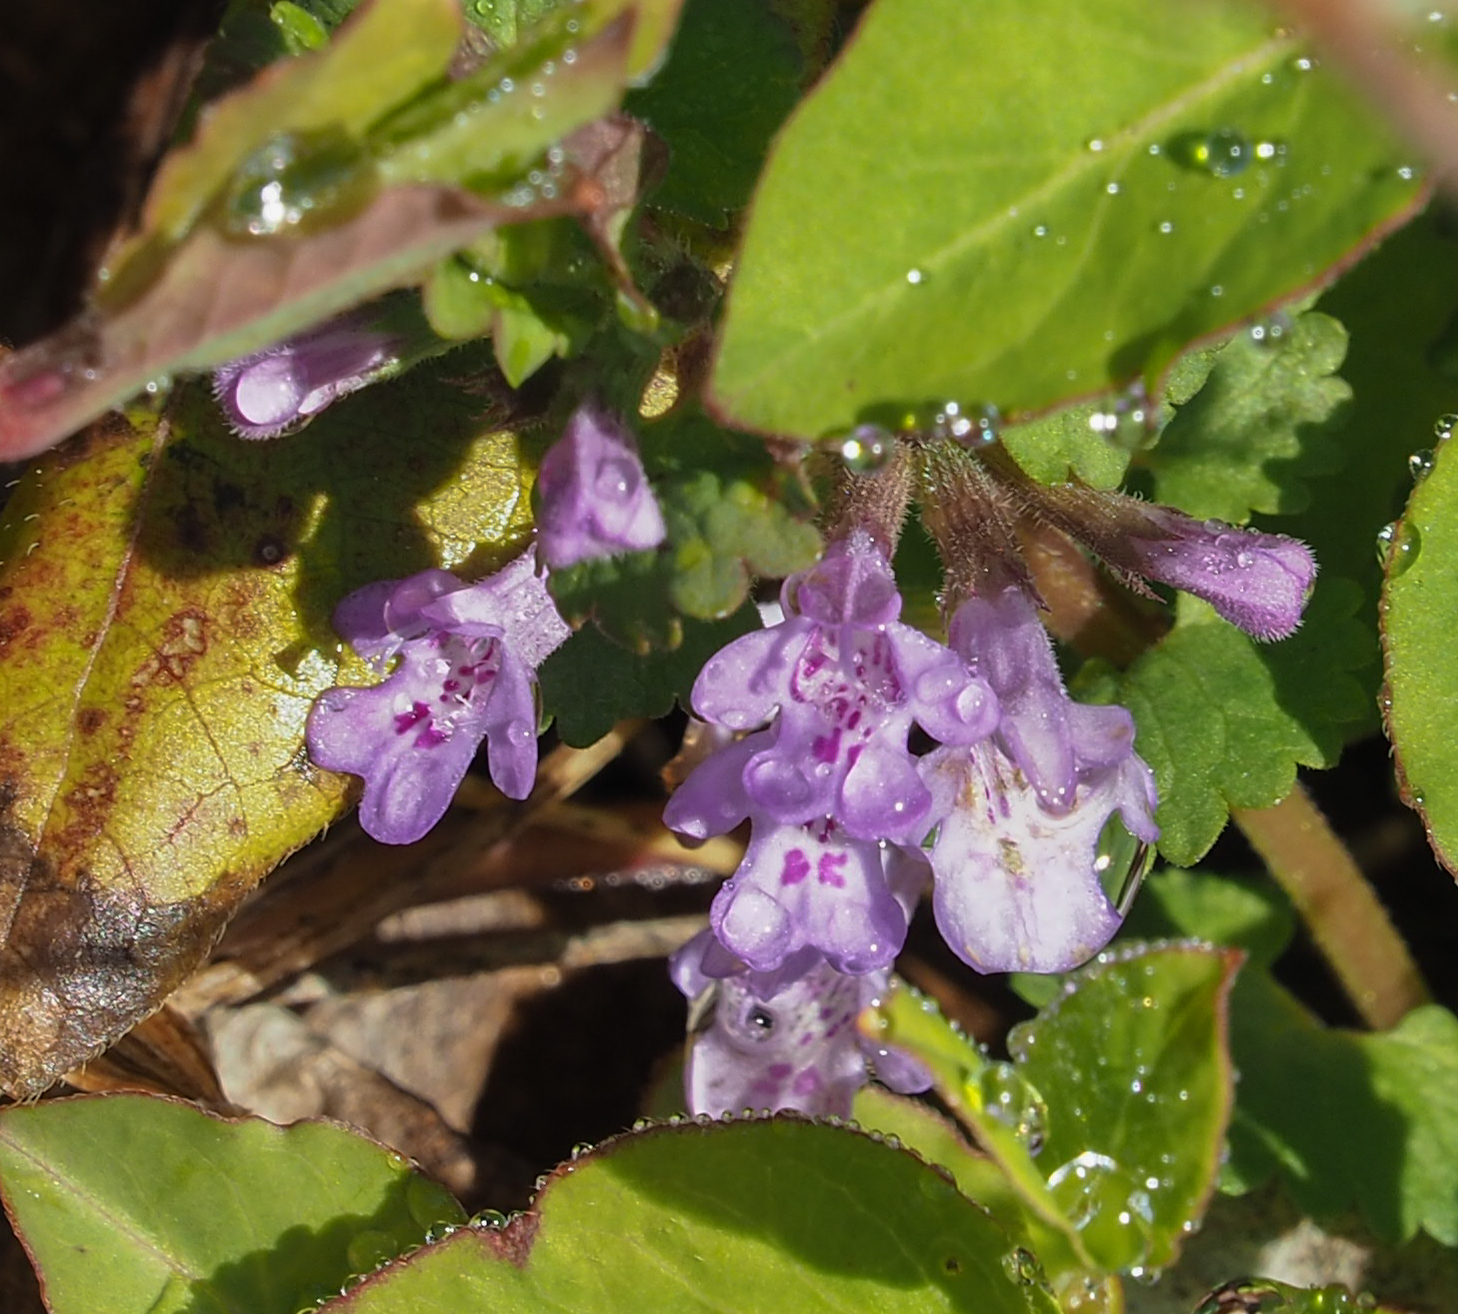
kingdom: Plantae
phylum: Tracheophyta
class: Magnoliopsida
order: Lamiales
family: Lamiaceae
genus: Glechoma
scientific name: Glechoma hederacea
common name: Ground ivy
